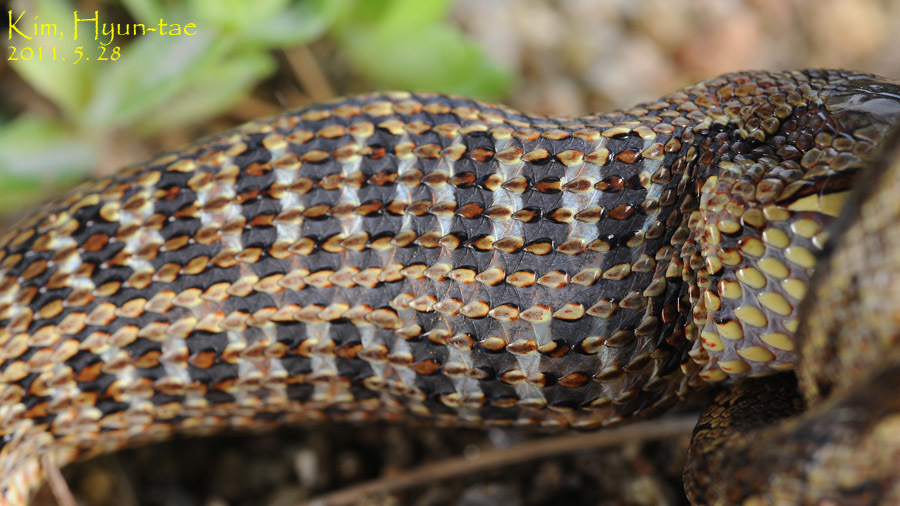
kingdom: Animalia
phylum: Chordata
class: Squamata
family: Colubridae
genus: Elaphe
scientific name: Elaphe dione
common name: Dione ratsnake
